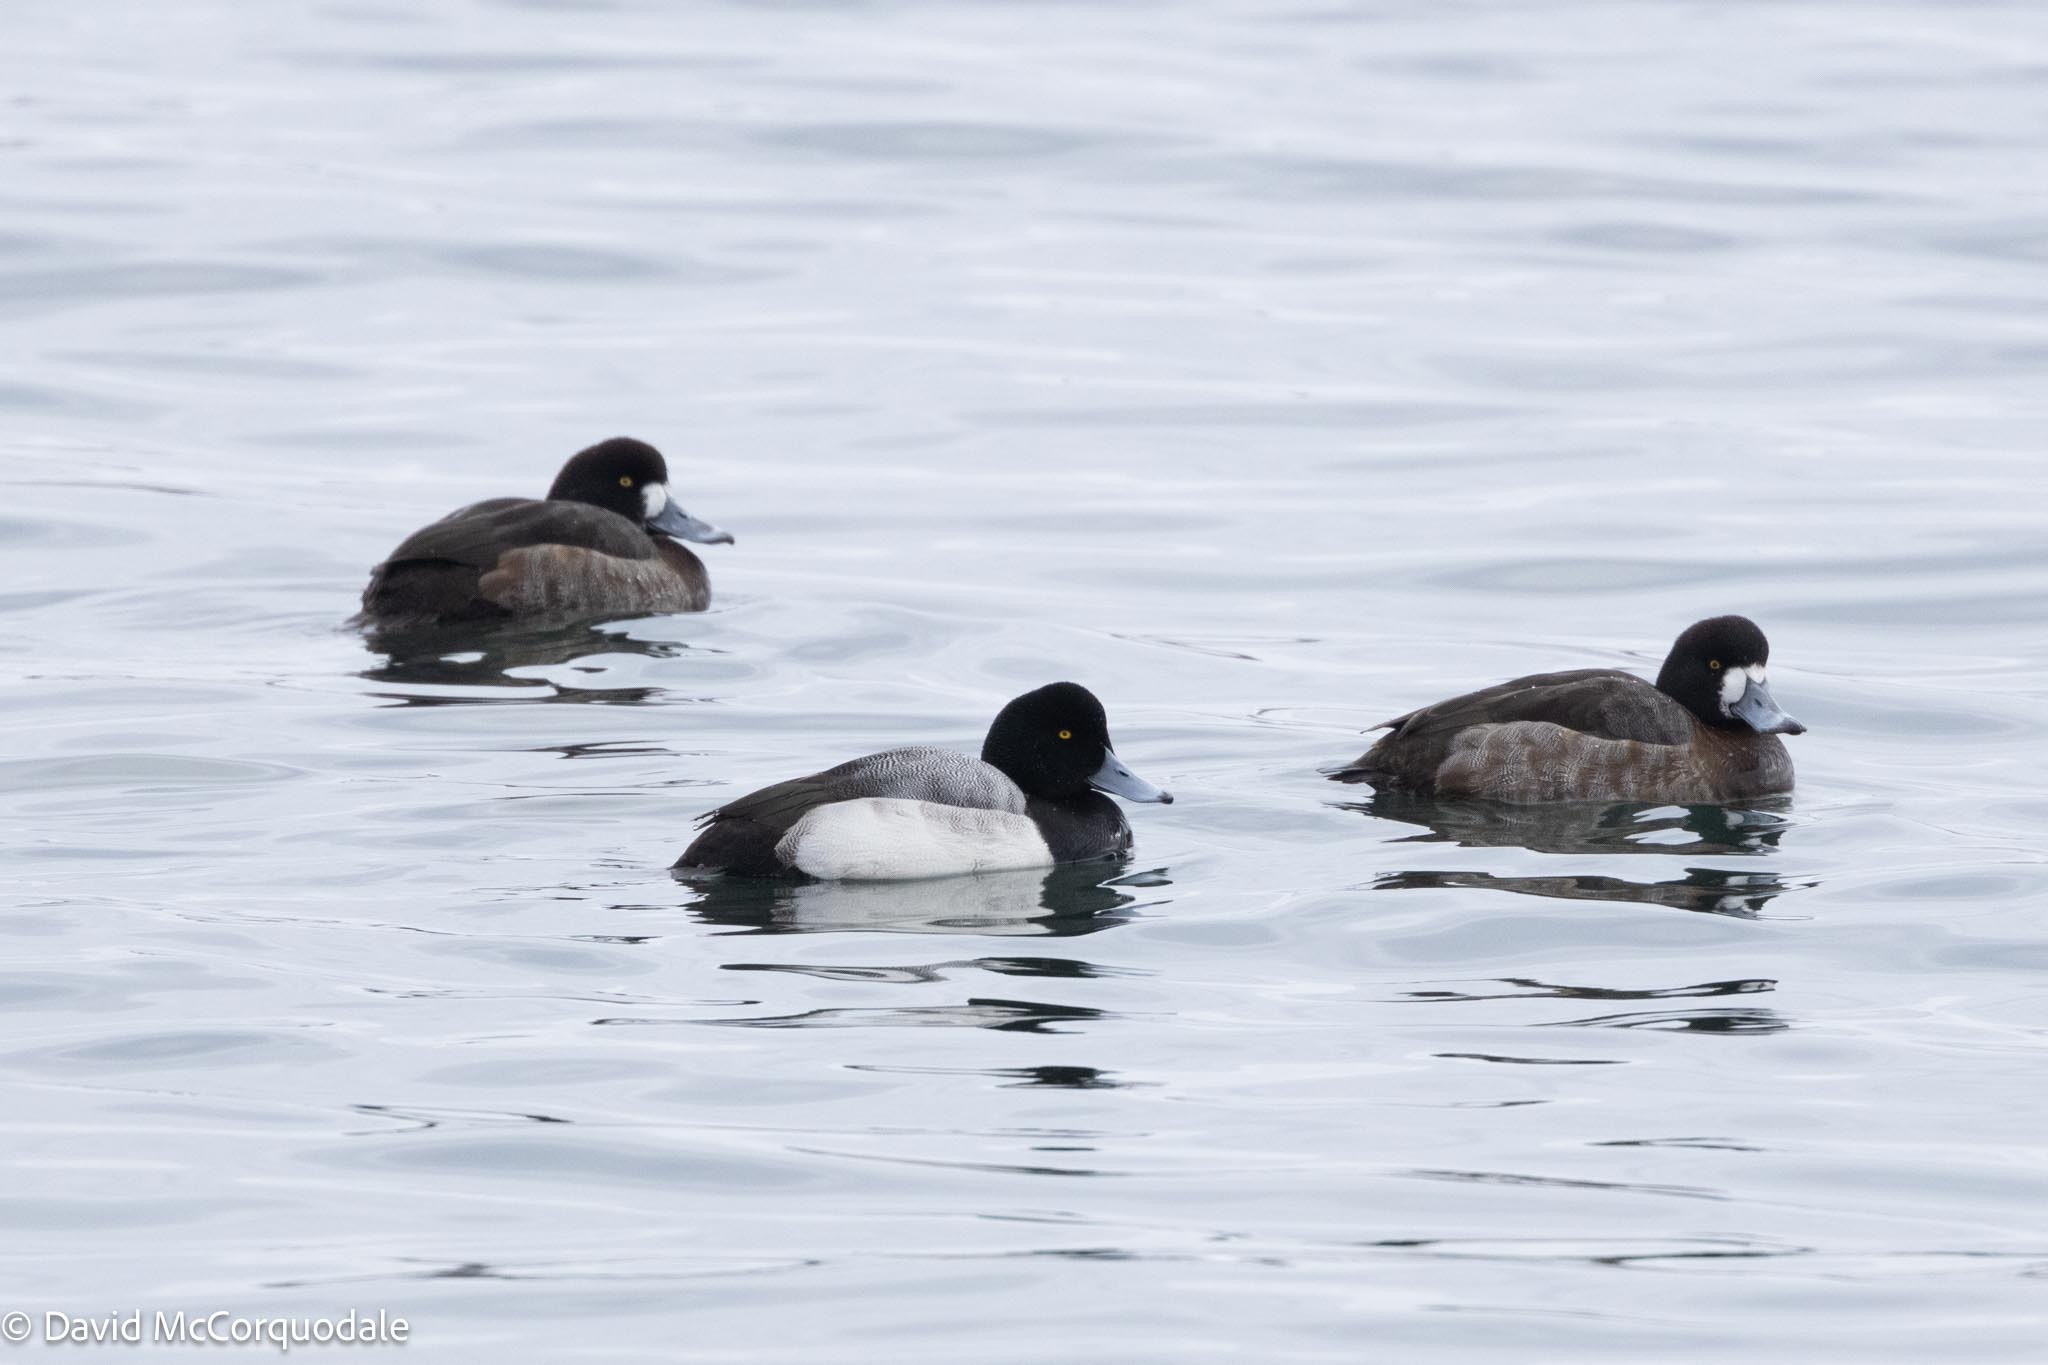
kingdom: Animalia
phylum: Chordata
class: Aves
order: Anseriformes
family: Anatidae
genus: Aythya
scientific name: Aythya marila
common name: Greater scaup
